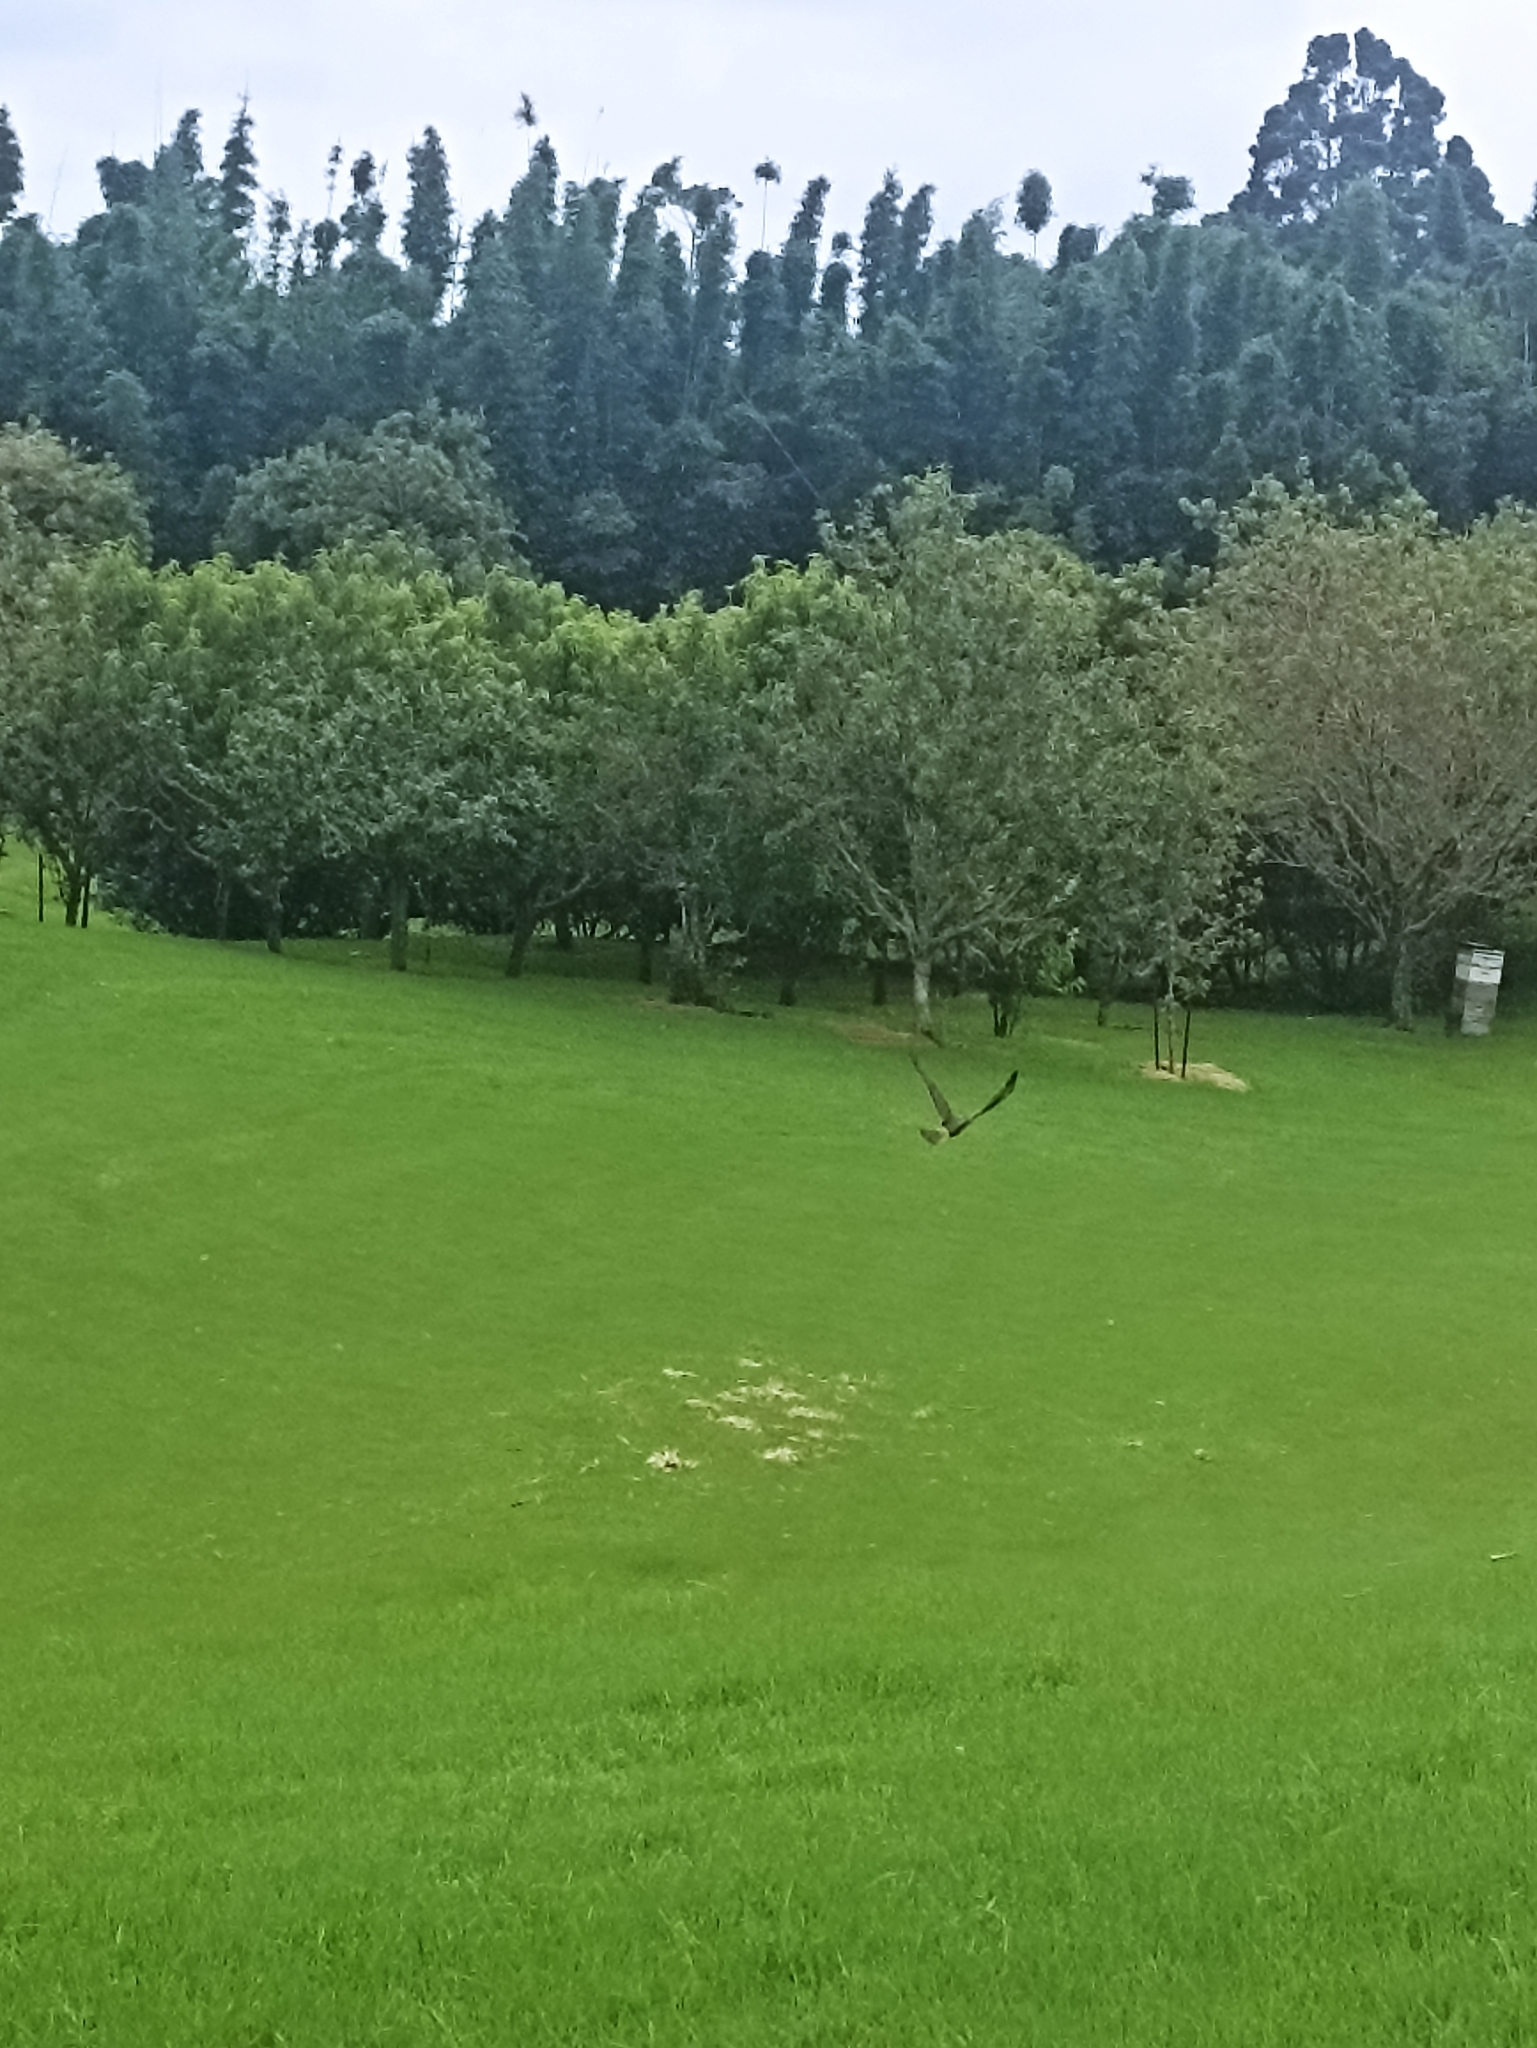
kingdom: Animalia
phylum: Chordata
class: Aves
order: Accipitriformes
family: Accipitridae
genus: Circus
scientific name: Circus approximans
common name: Swamp harrier
